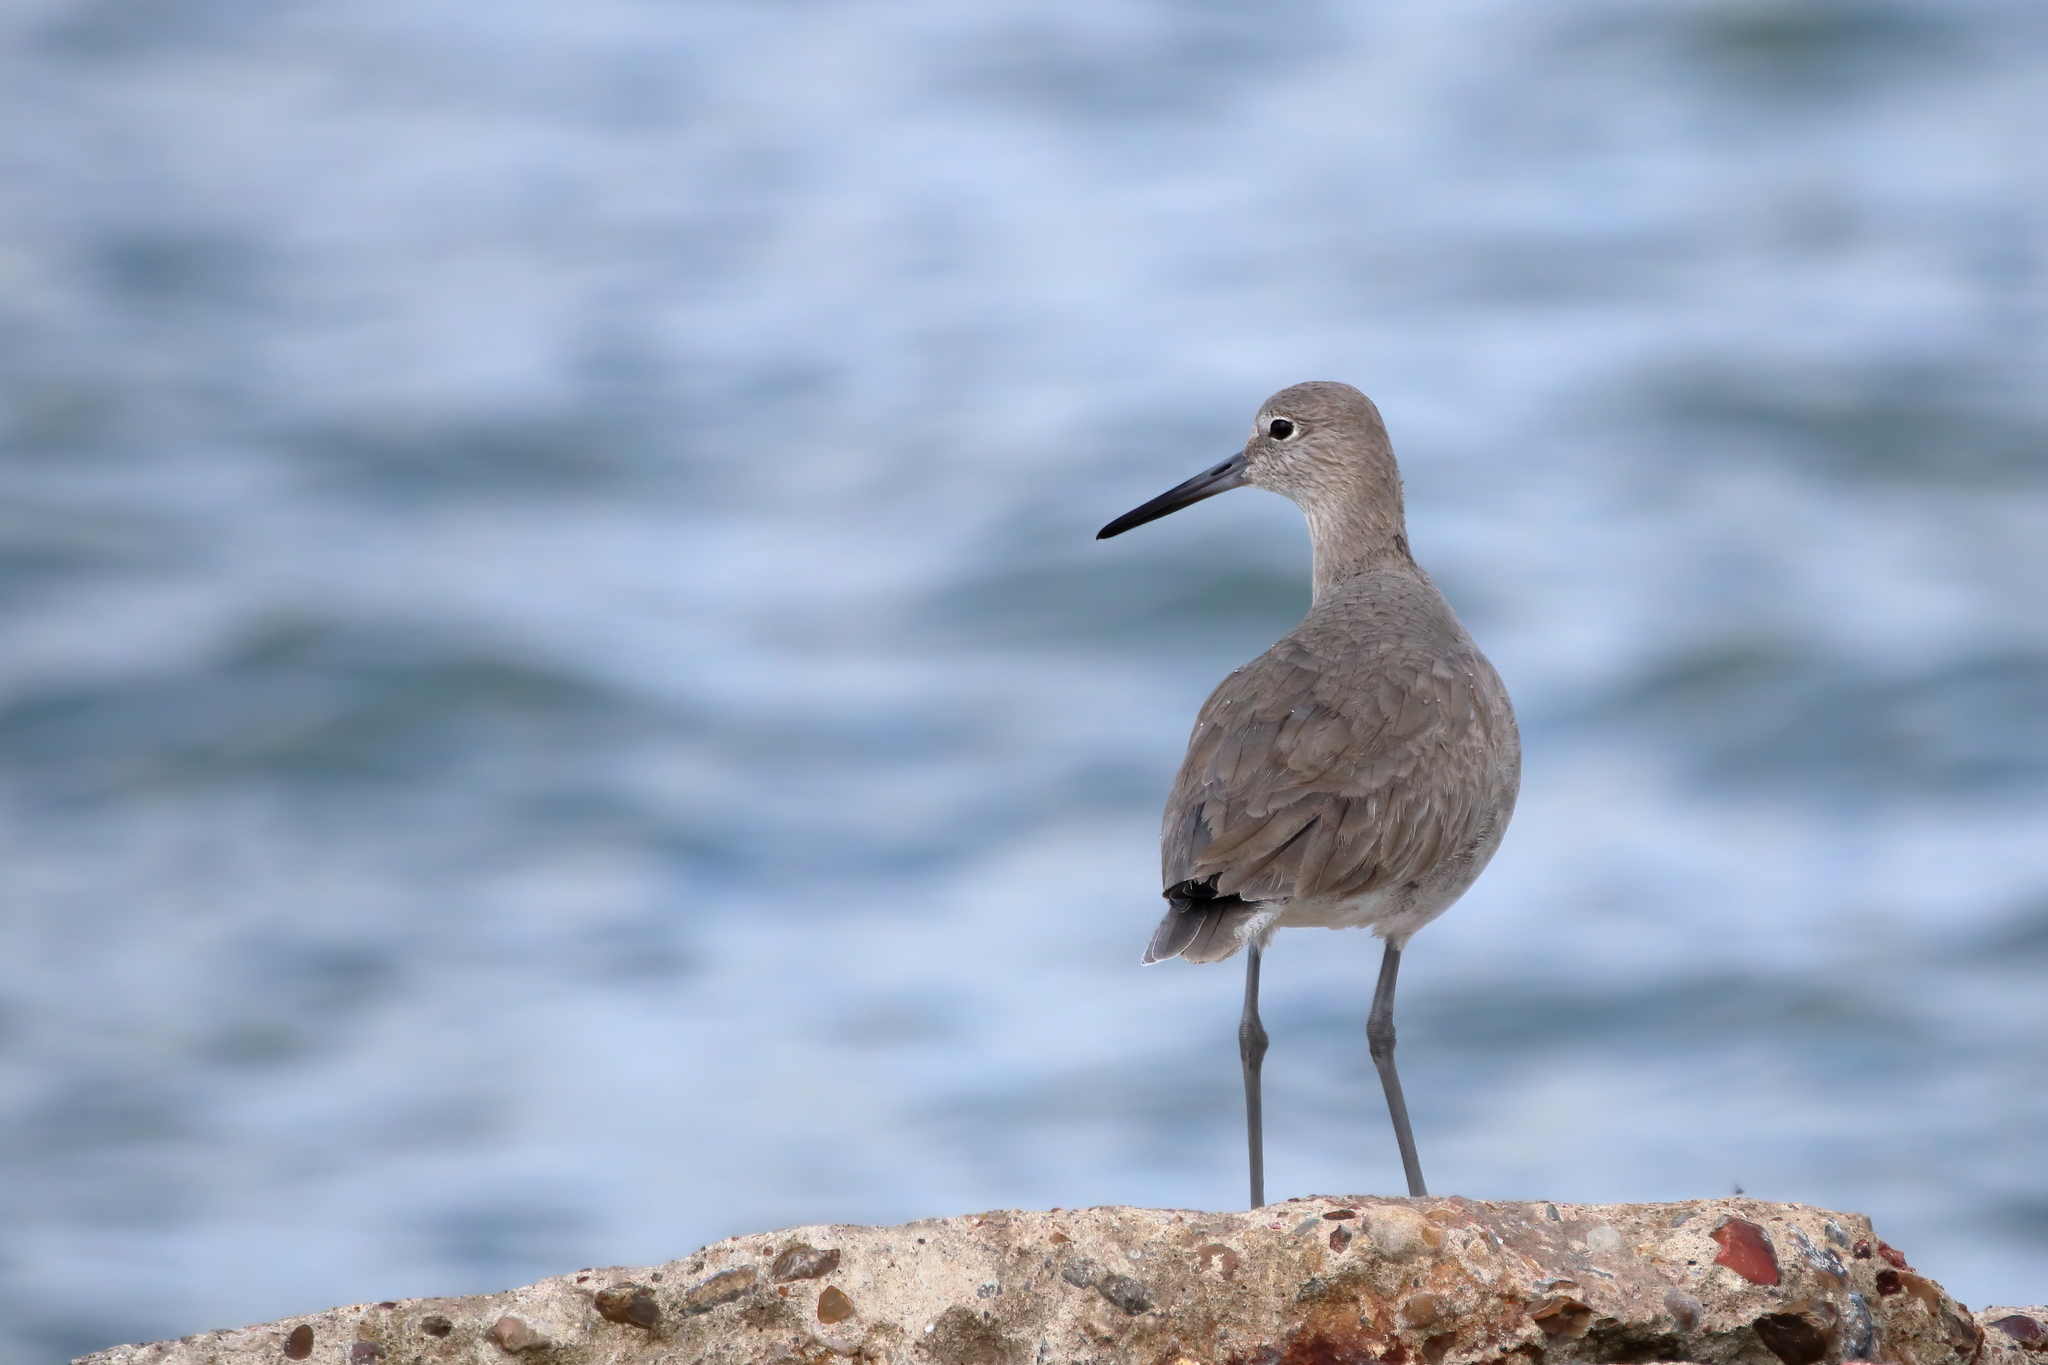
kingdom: Animalia
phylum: Chordata
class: Aves
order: Charadriiformes
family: Scolopacidae
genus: Tringa
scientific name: Tringa semipalmata
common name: Willet
